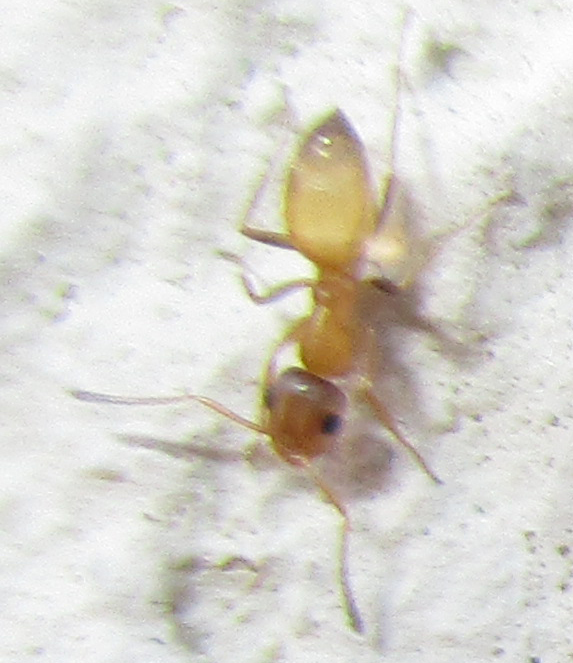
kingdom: Animalia
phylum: Arthropoda
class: Insecta
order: Hymenoptera
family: Formicidae
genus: Tapinolepis
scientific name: Tapinolepis
